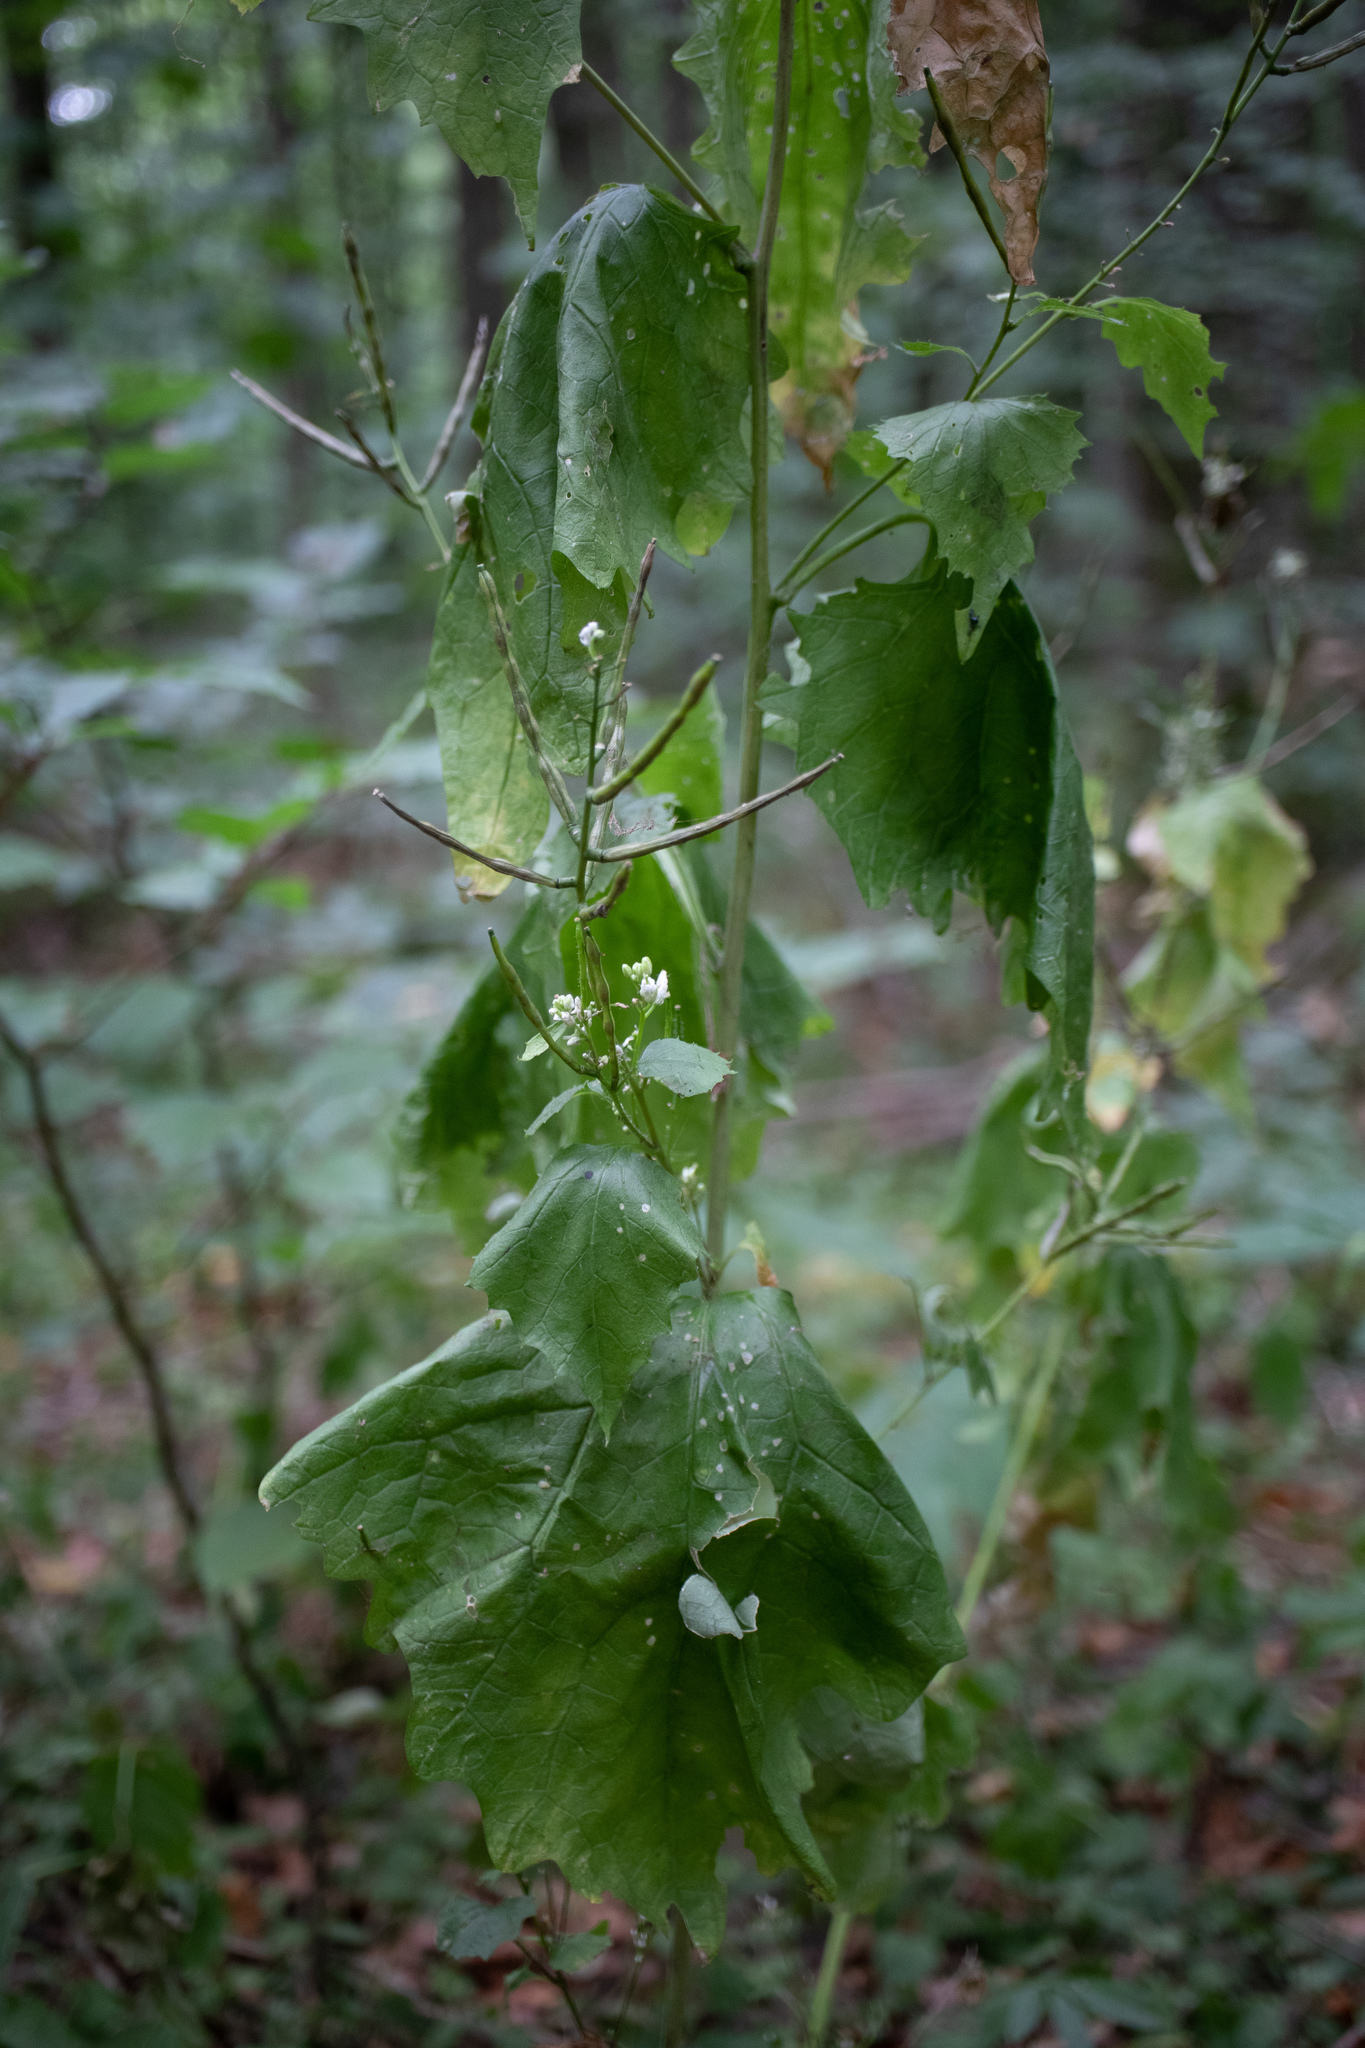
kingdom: Plantae
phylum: Tracheophyta
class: Magnoliopsida
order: Brassicales
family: Brassicaceae
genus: Alliaria
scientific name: Alliaria petiolata
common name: Garlic mustard
